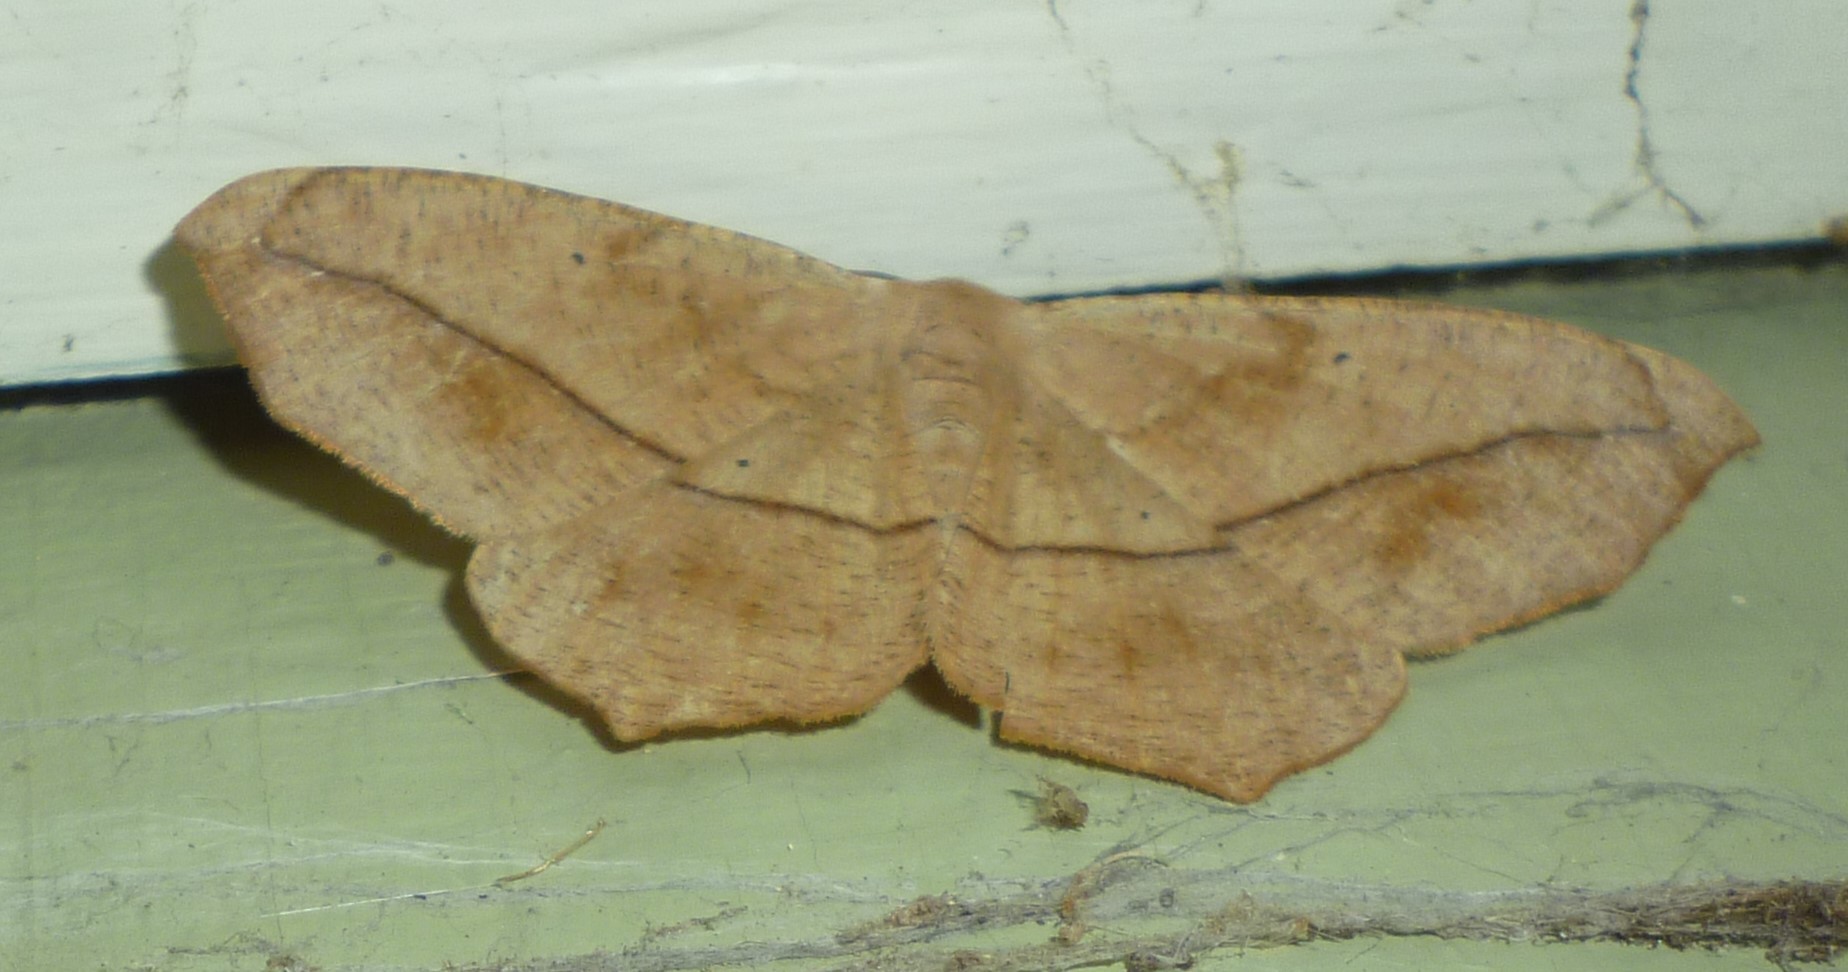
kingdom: Animalia
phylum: Arthropoda
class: Insecta
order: Lepidoptera
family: Geometridae
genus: Prochoerodes
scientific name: Prochoerodes lineola
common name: Large maple spanworm
